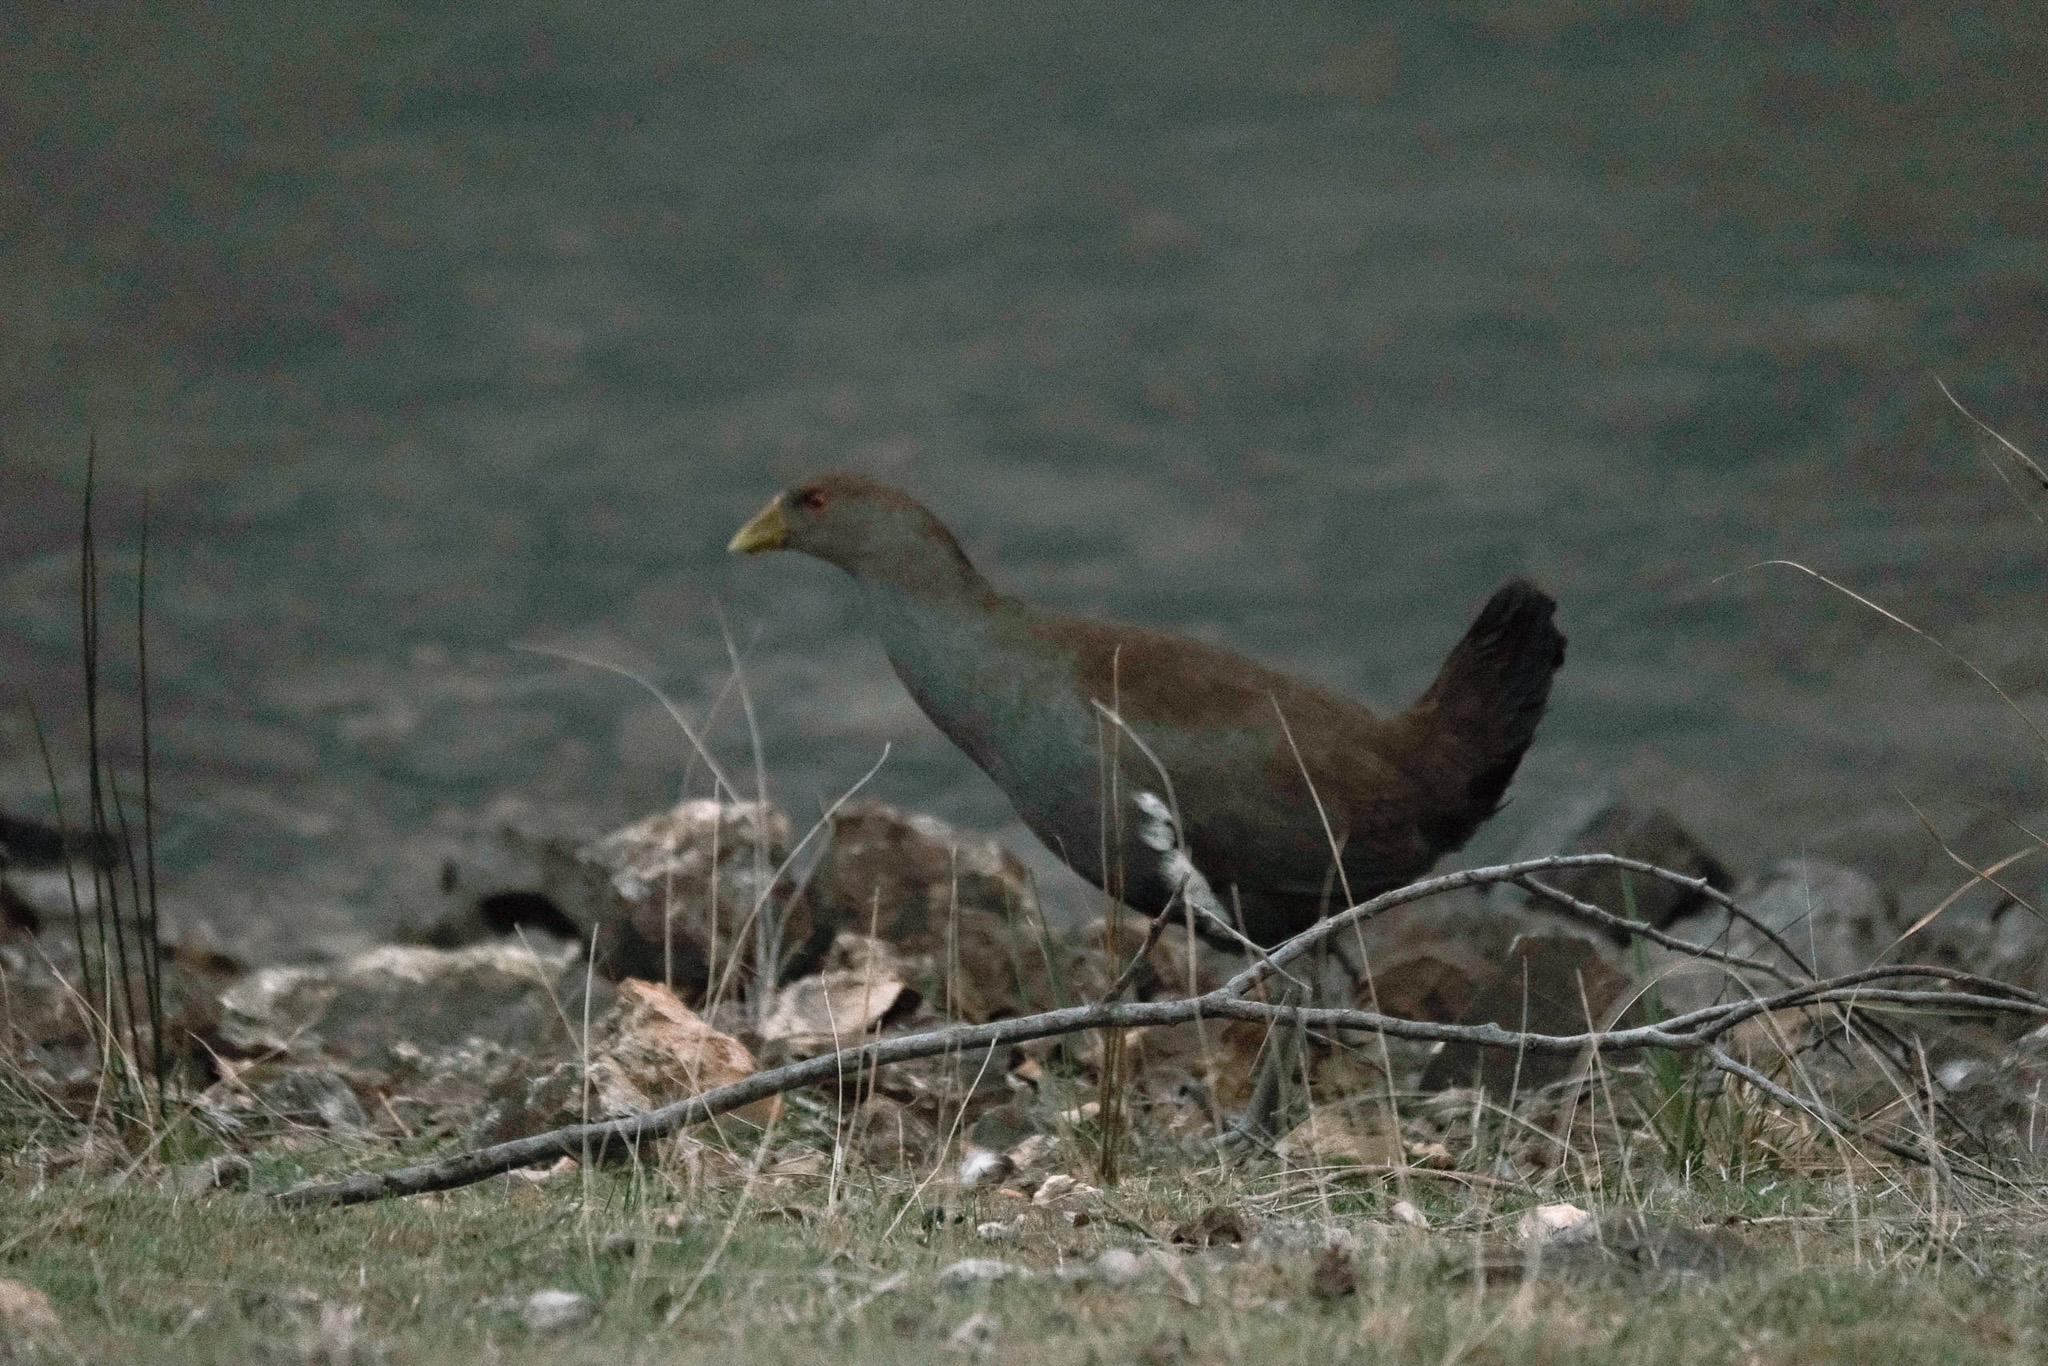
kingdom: Animalia
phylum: Chordata
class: Aves
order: Gruiformes
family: Rallidae
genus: Gallinula
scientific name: Gallinula mortierii
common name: Tasmanian nativehen
